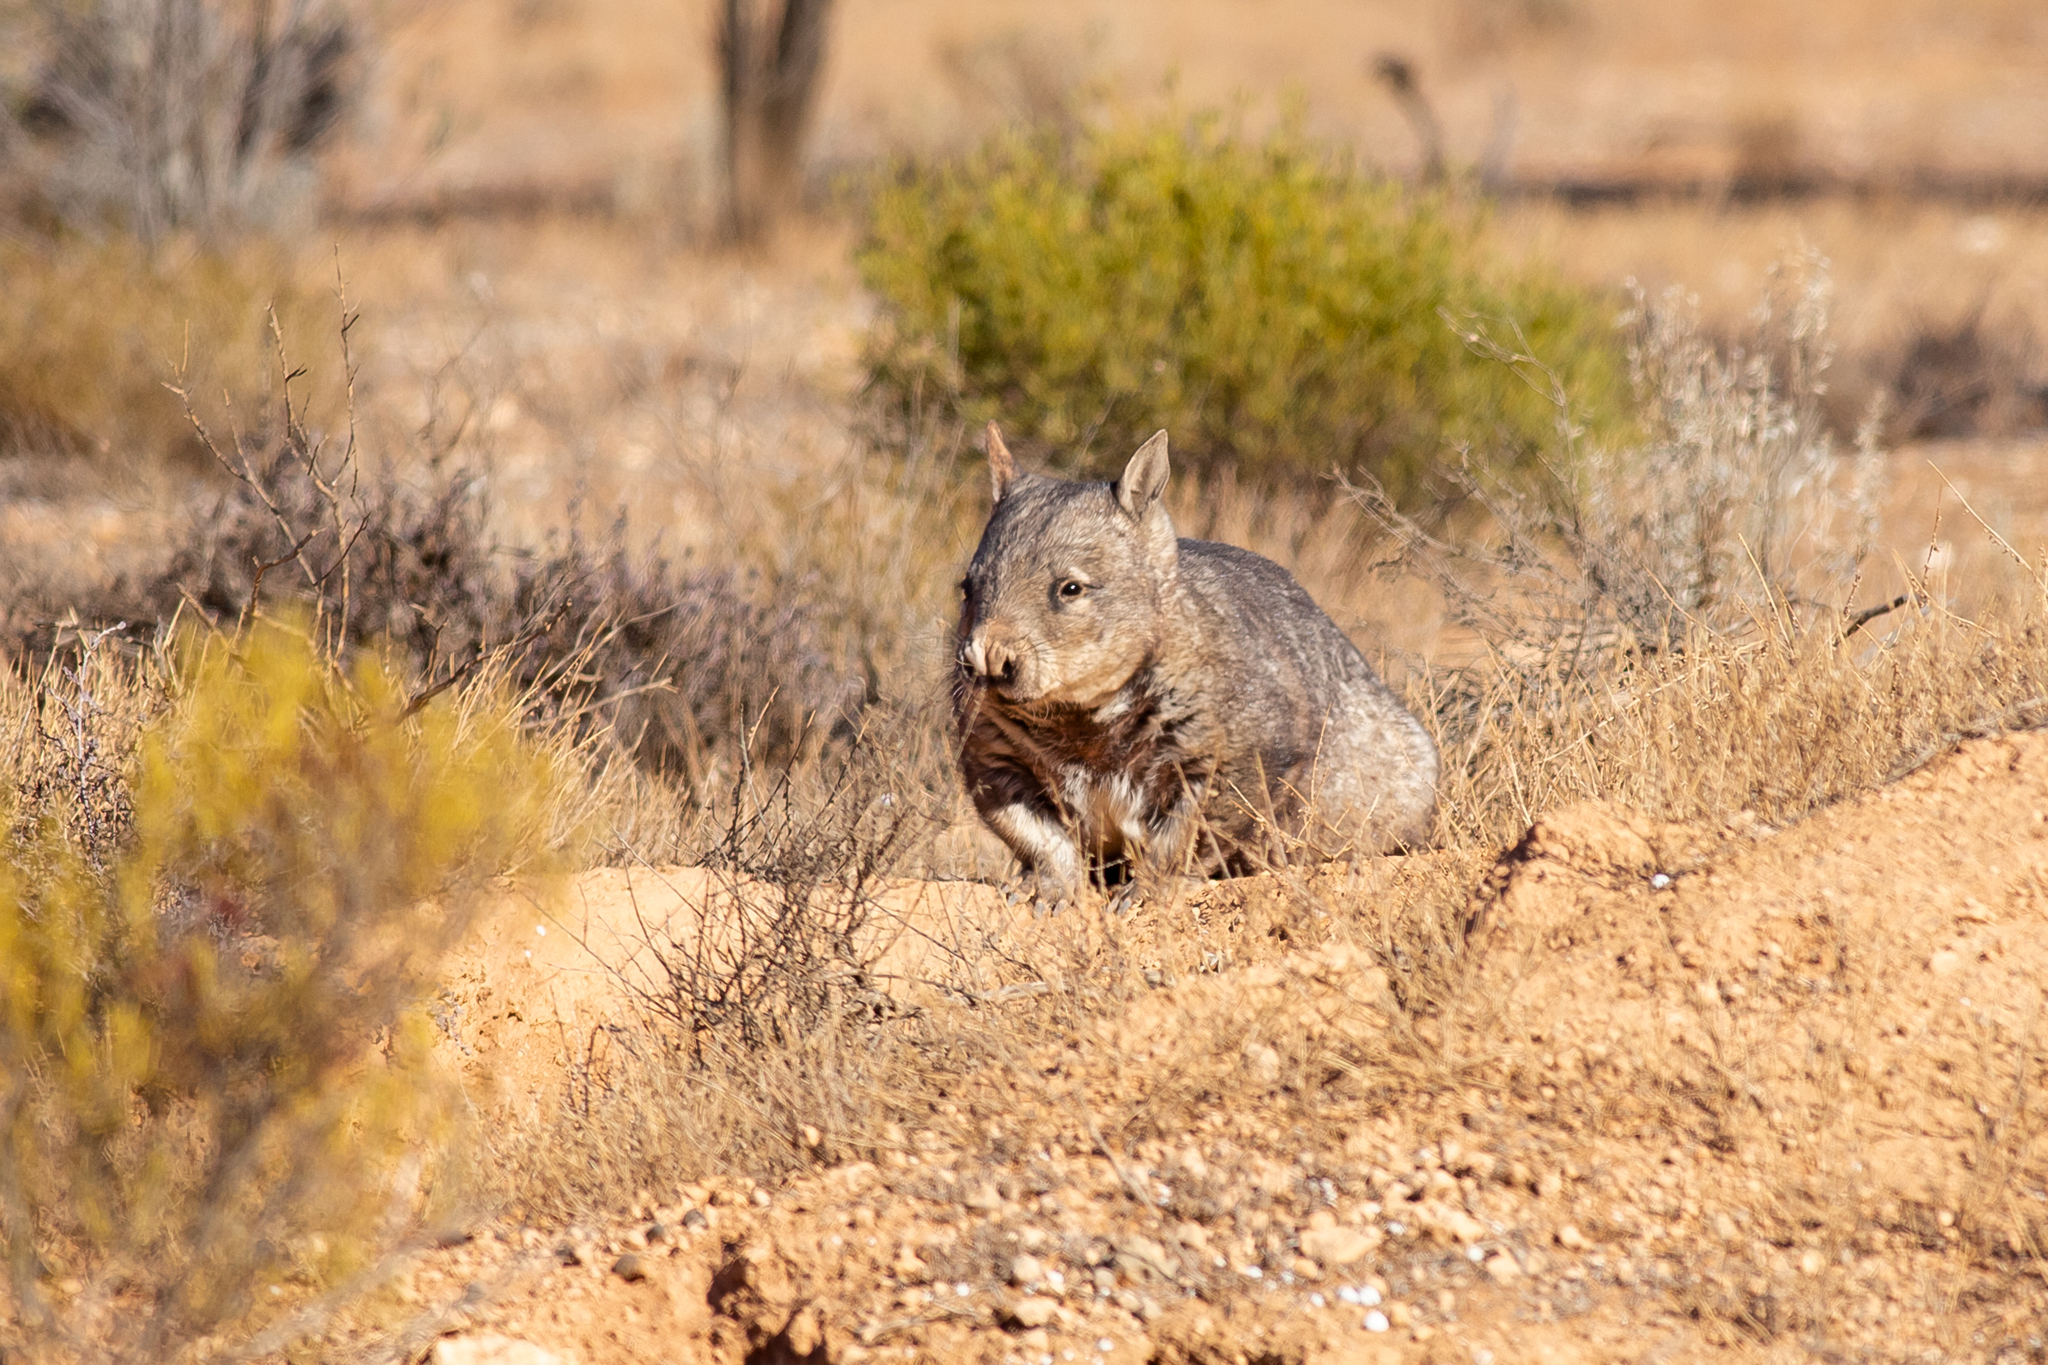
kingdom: Animalia
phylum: Chordata
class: Mammalia
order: Diprotodontia
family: Vombatidae
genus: Lasiorhinus
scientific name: Lasiorhinus latifrons
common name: Southern hairy-nosed wombat
